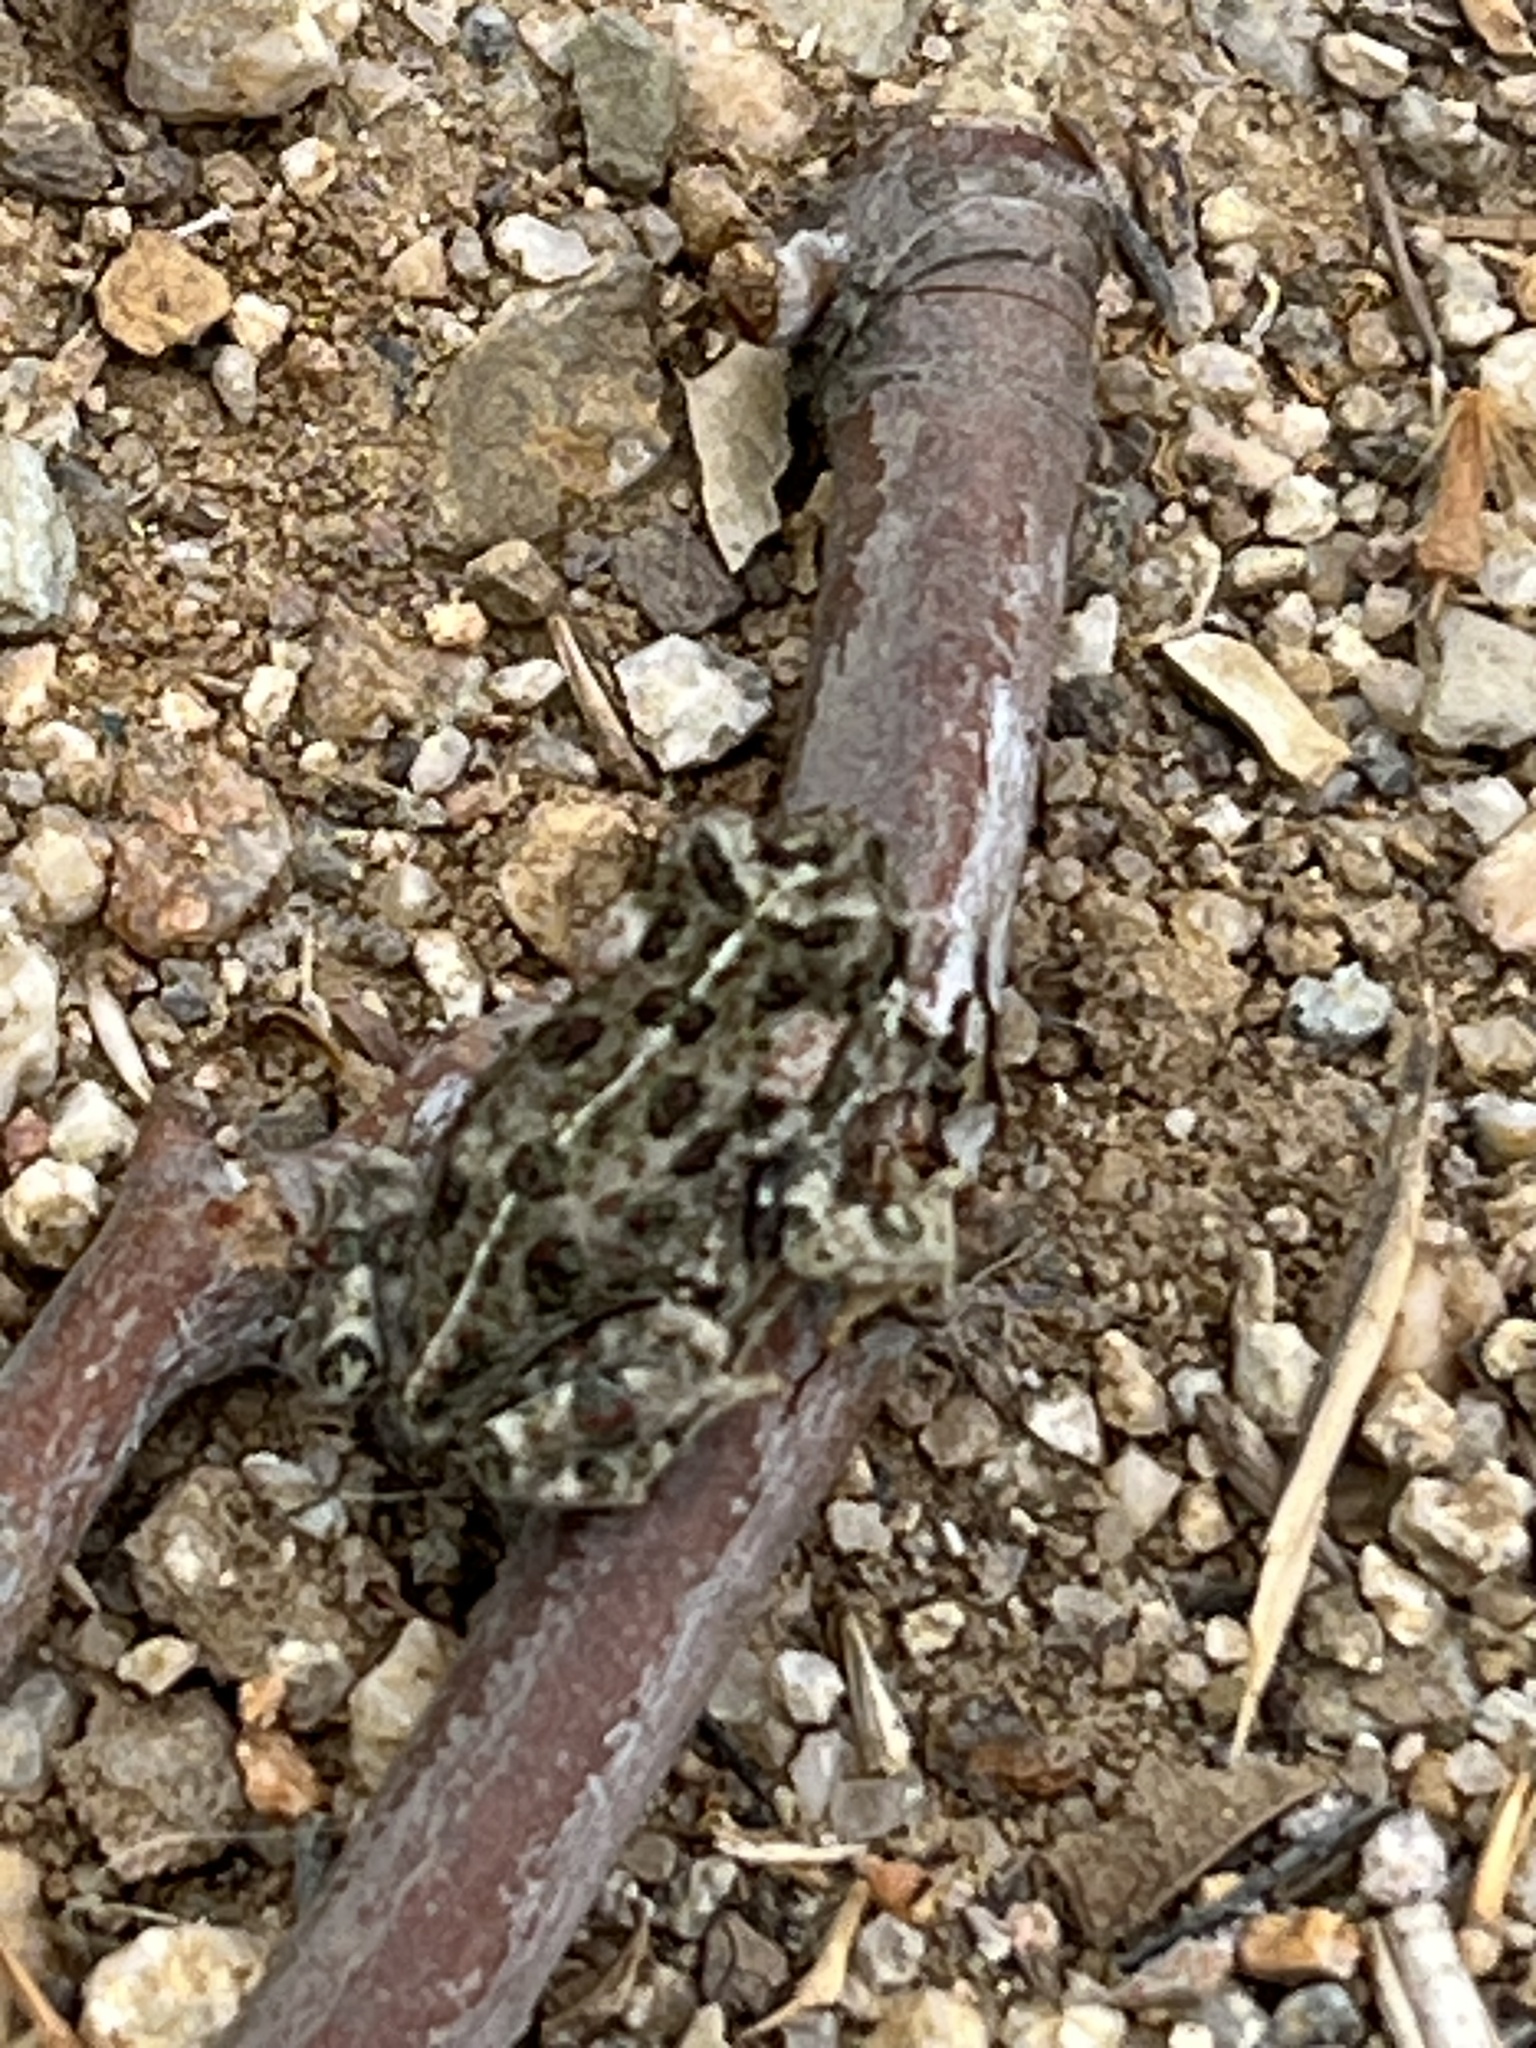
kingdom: Animalia
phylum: Chordata
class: Amphibia
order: Anura
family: Bufonidae
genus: Anaxyrus
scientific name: Anaxyrus boreas
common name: Western toad
